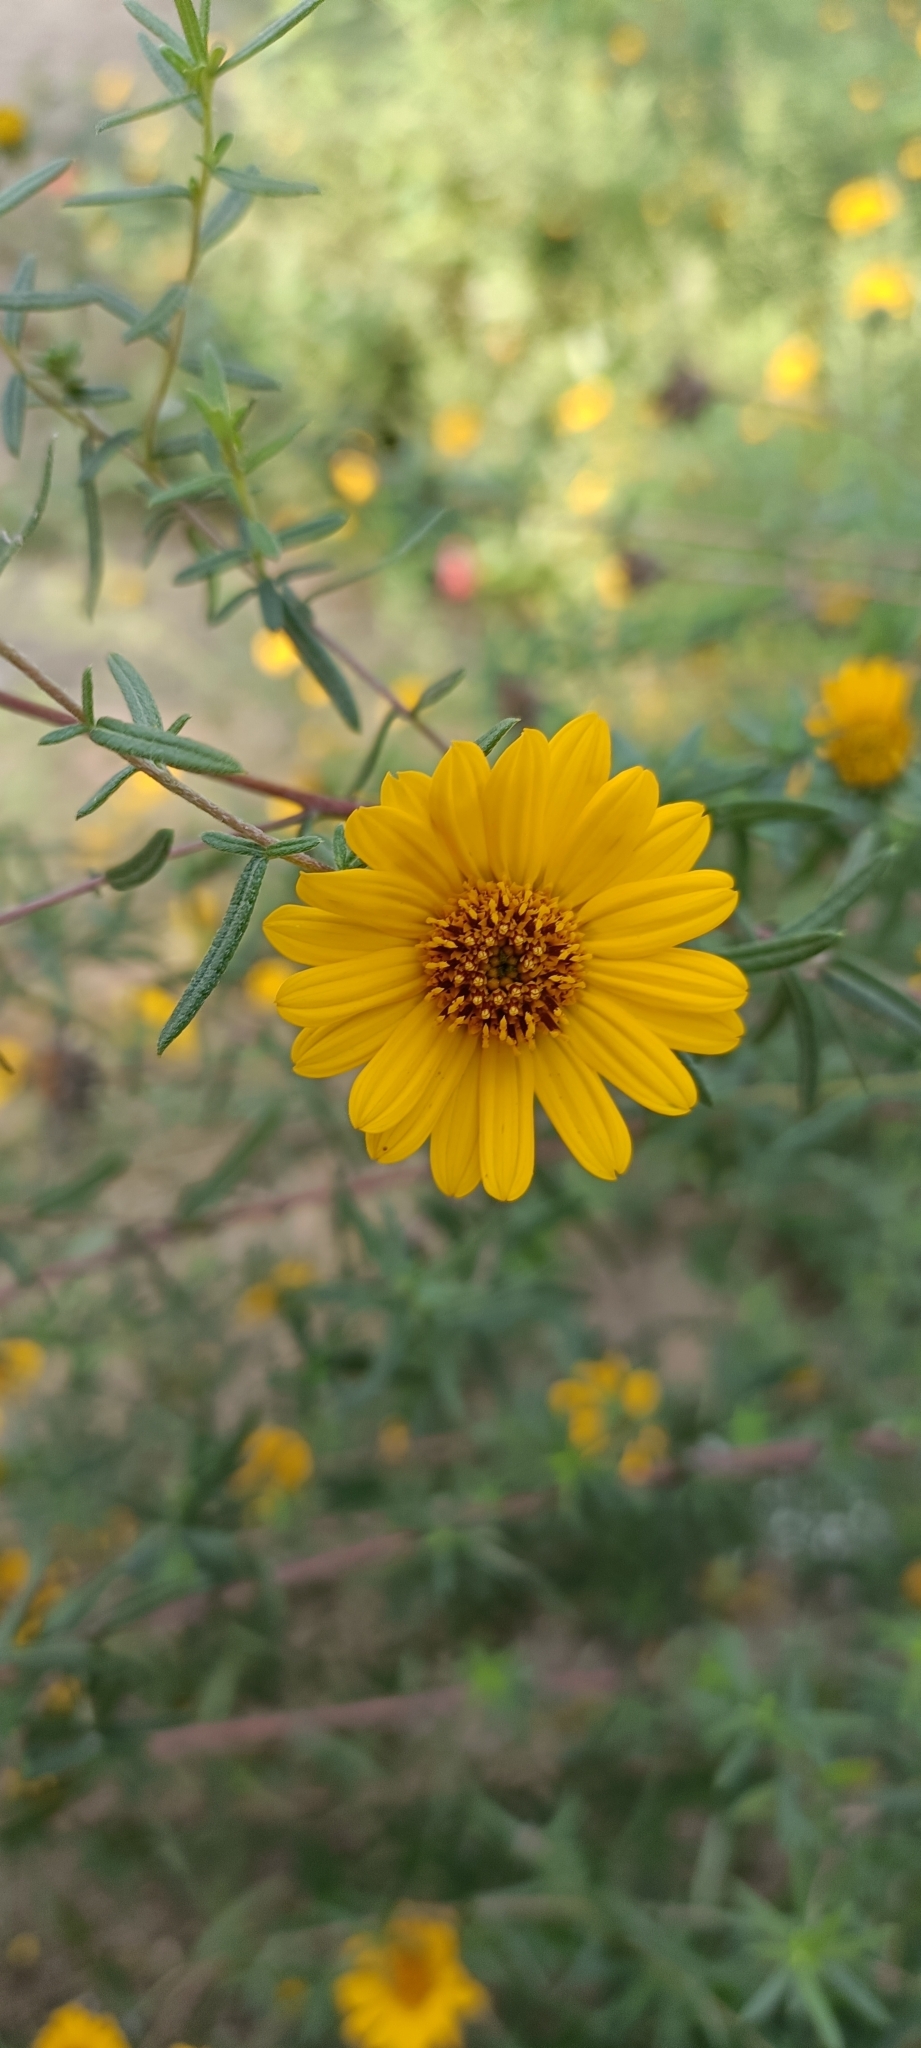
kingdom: Plantae
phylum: Tracheophyta
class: Magnoliopsida
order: Asterales
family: Asteraceae
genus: Aldama
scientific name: Aldama linearis
